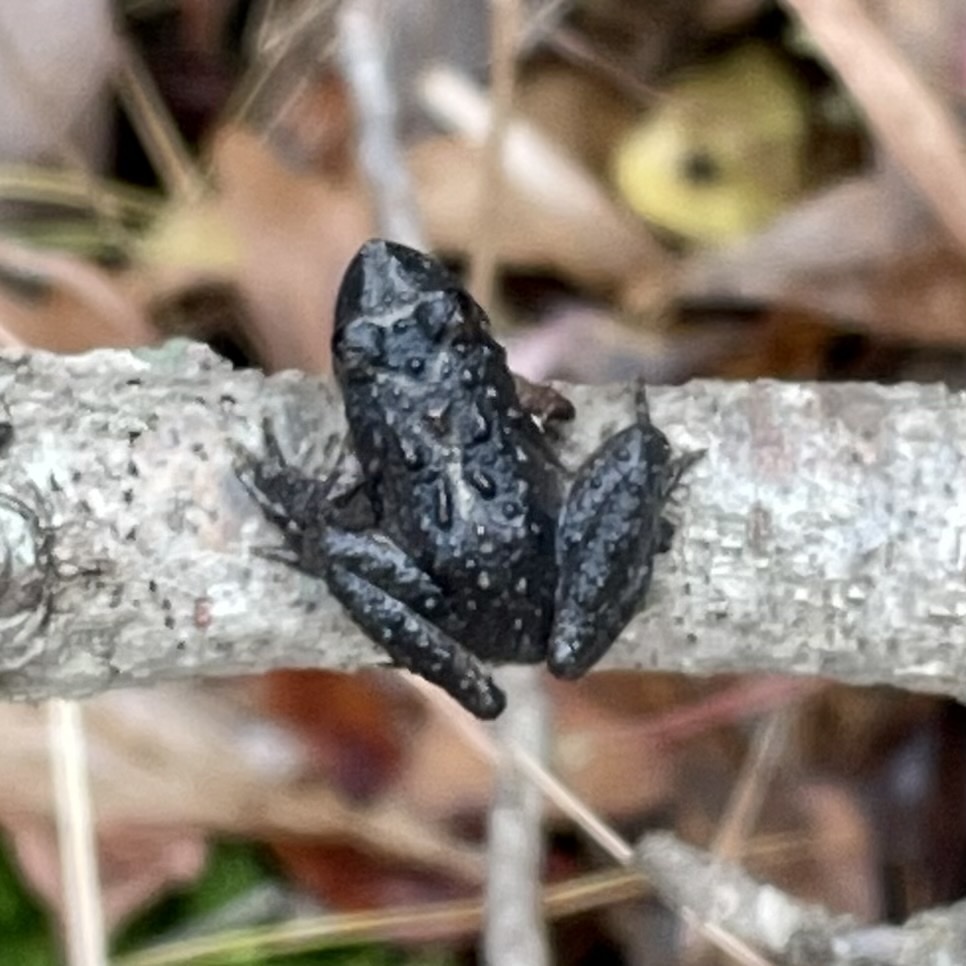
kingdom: Animalia
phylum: Chordata
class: Amphibia
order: Anura
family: Hylidae
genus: Acris
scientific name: Acris crepitans
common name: Northern cricket frog
